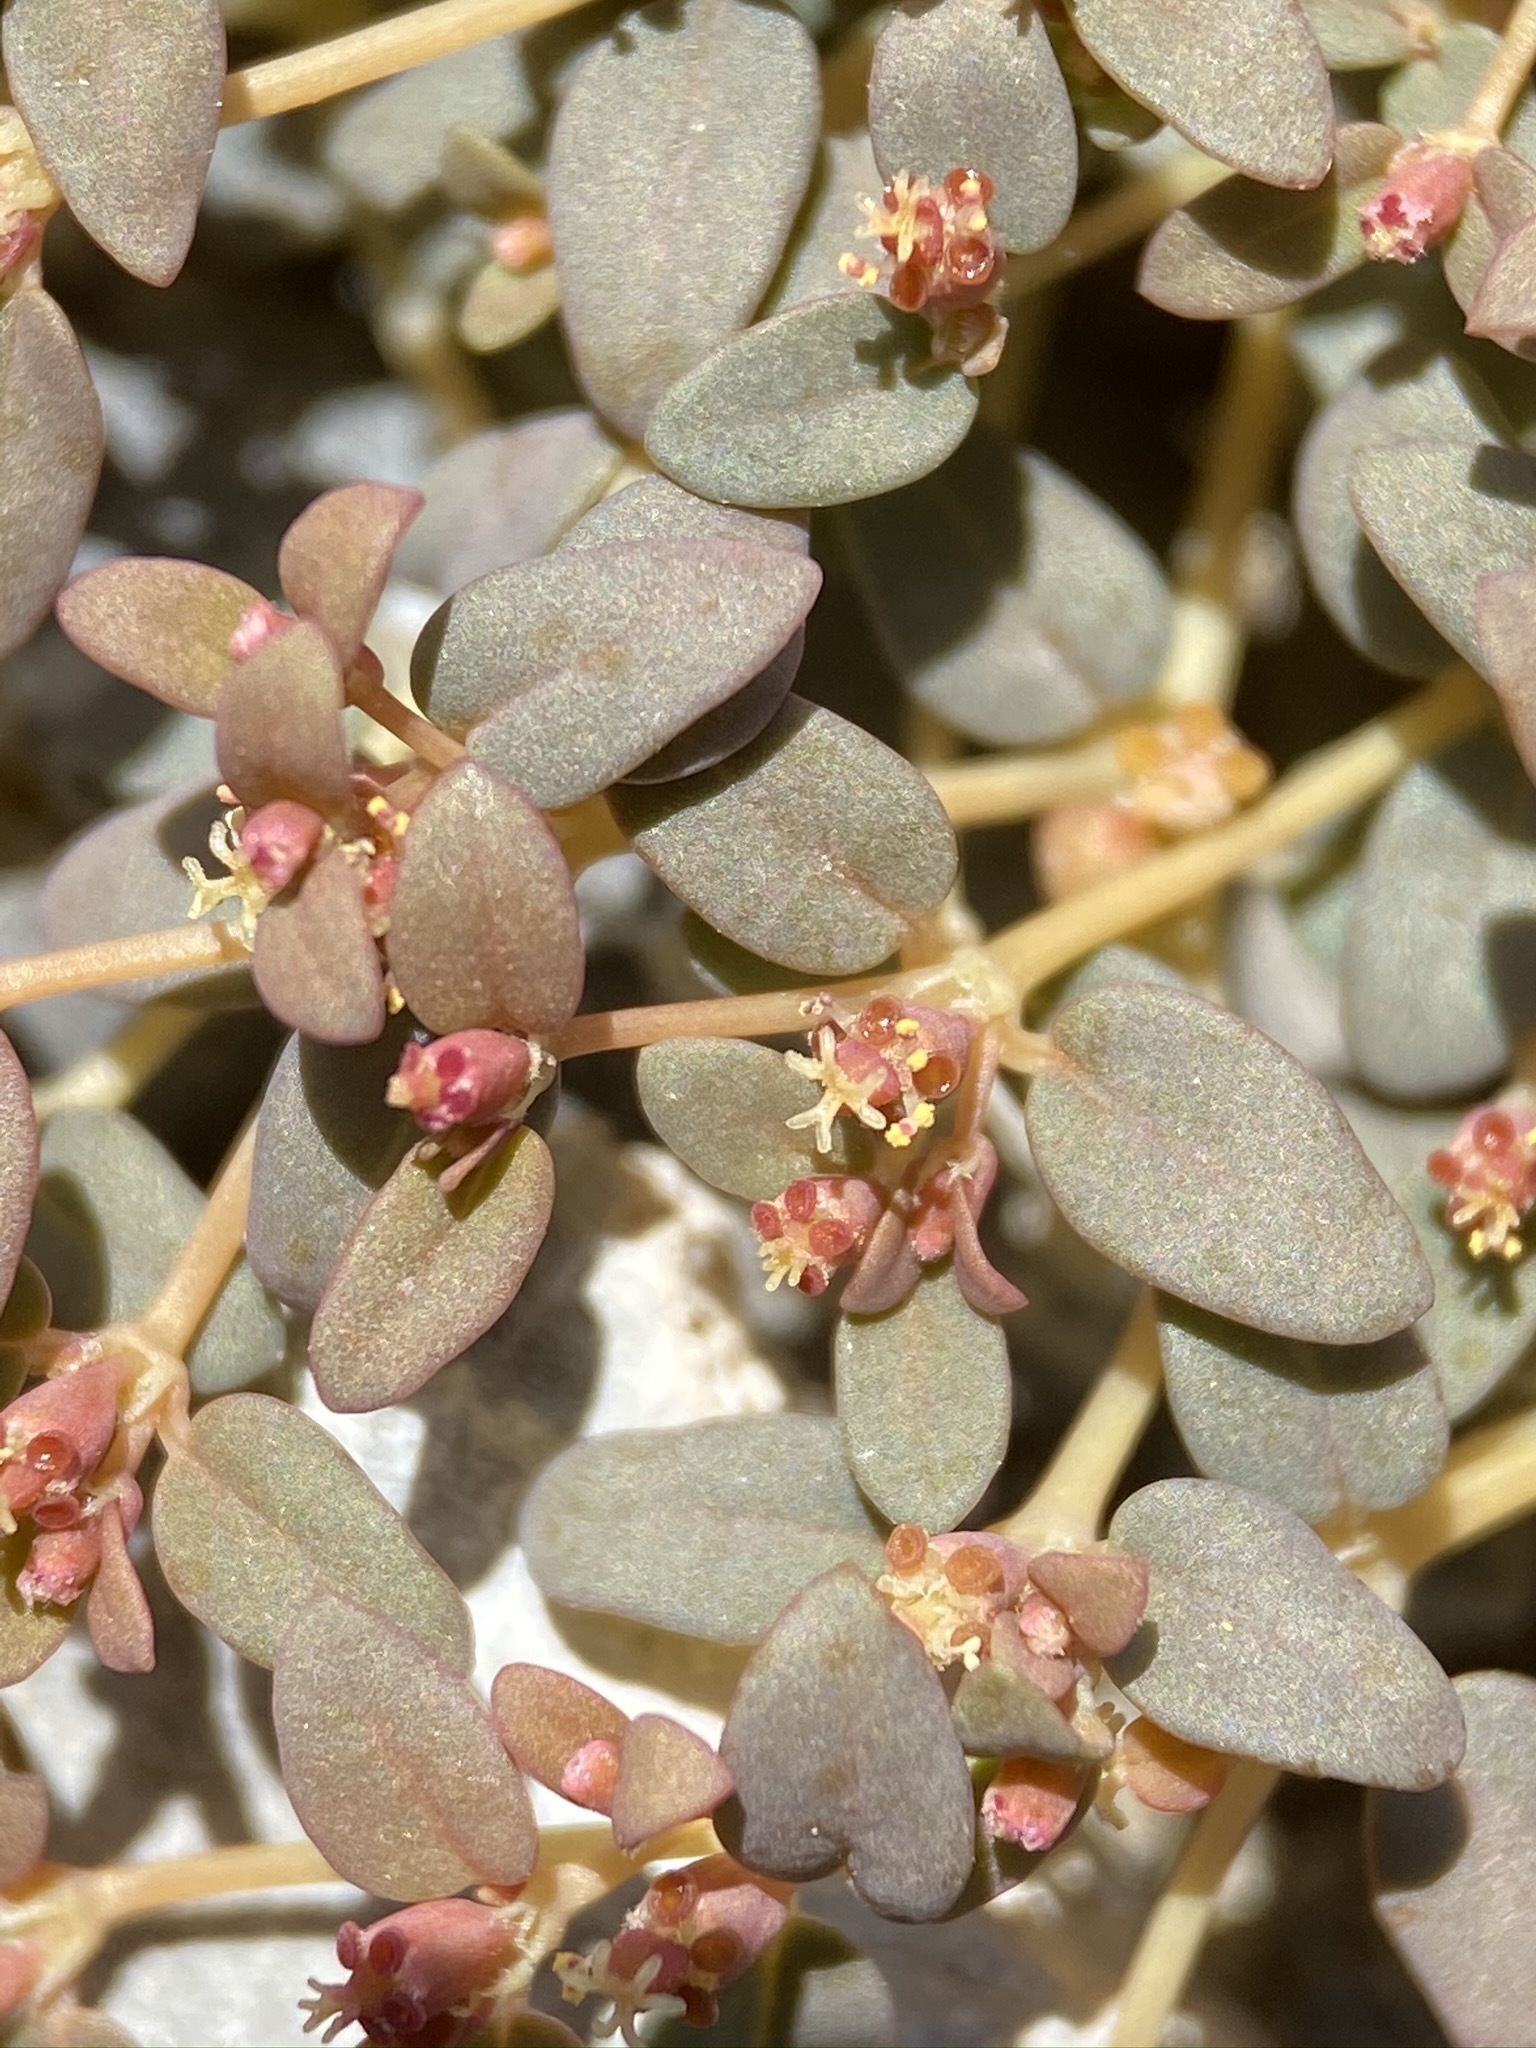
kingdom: Plantae
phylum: Tracheophyta
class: Magnoliopsida
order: Malpighiales
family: Euphorbiaceae
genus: Euphorbia
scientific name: Euphorbia parishii
